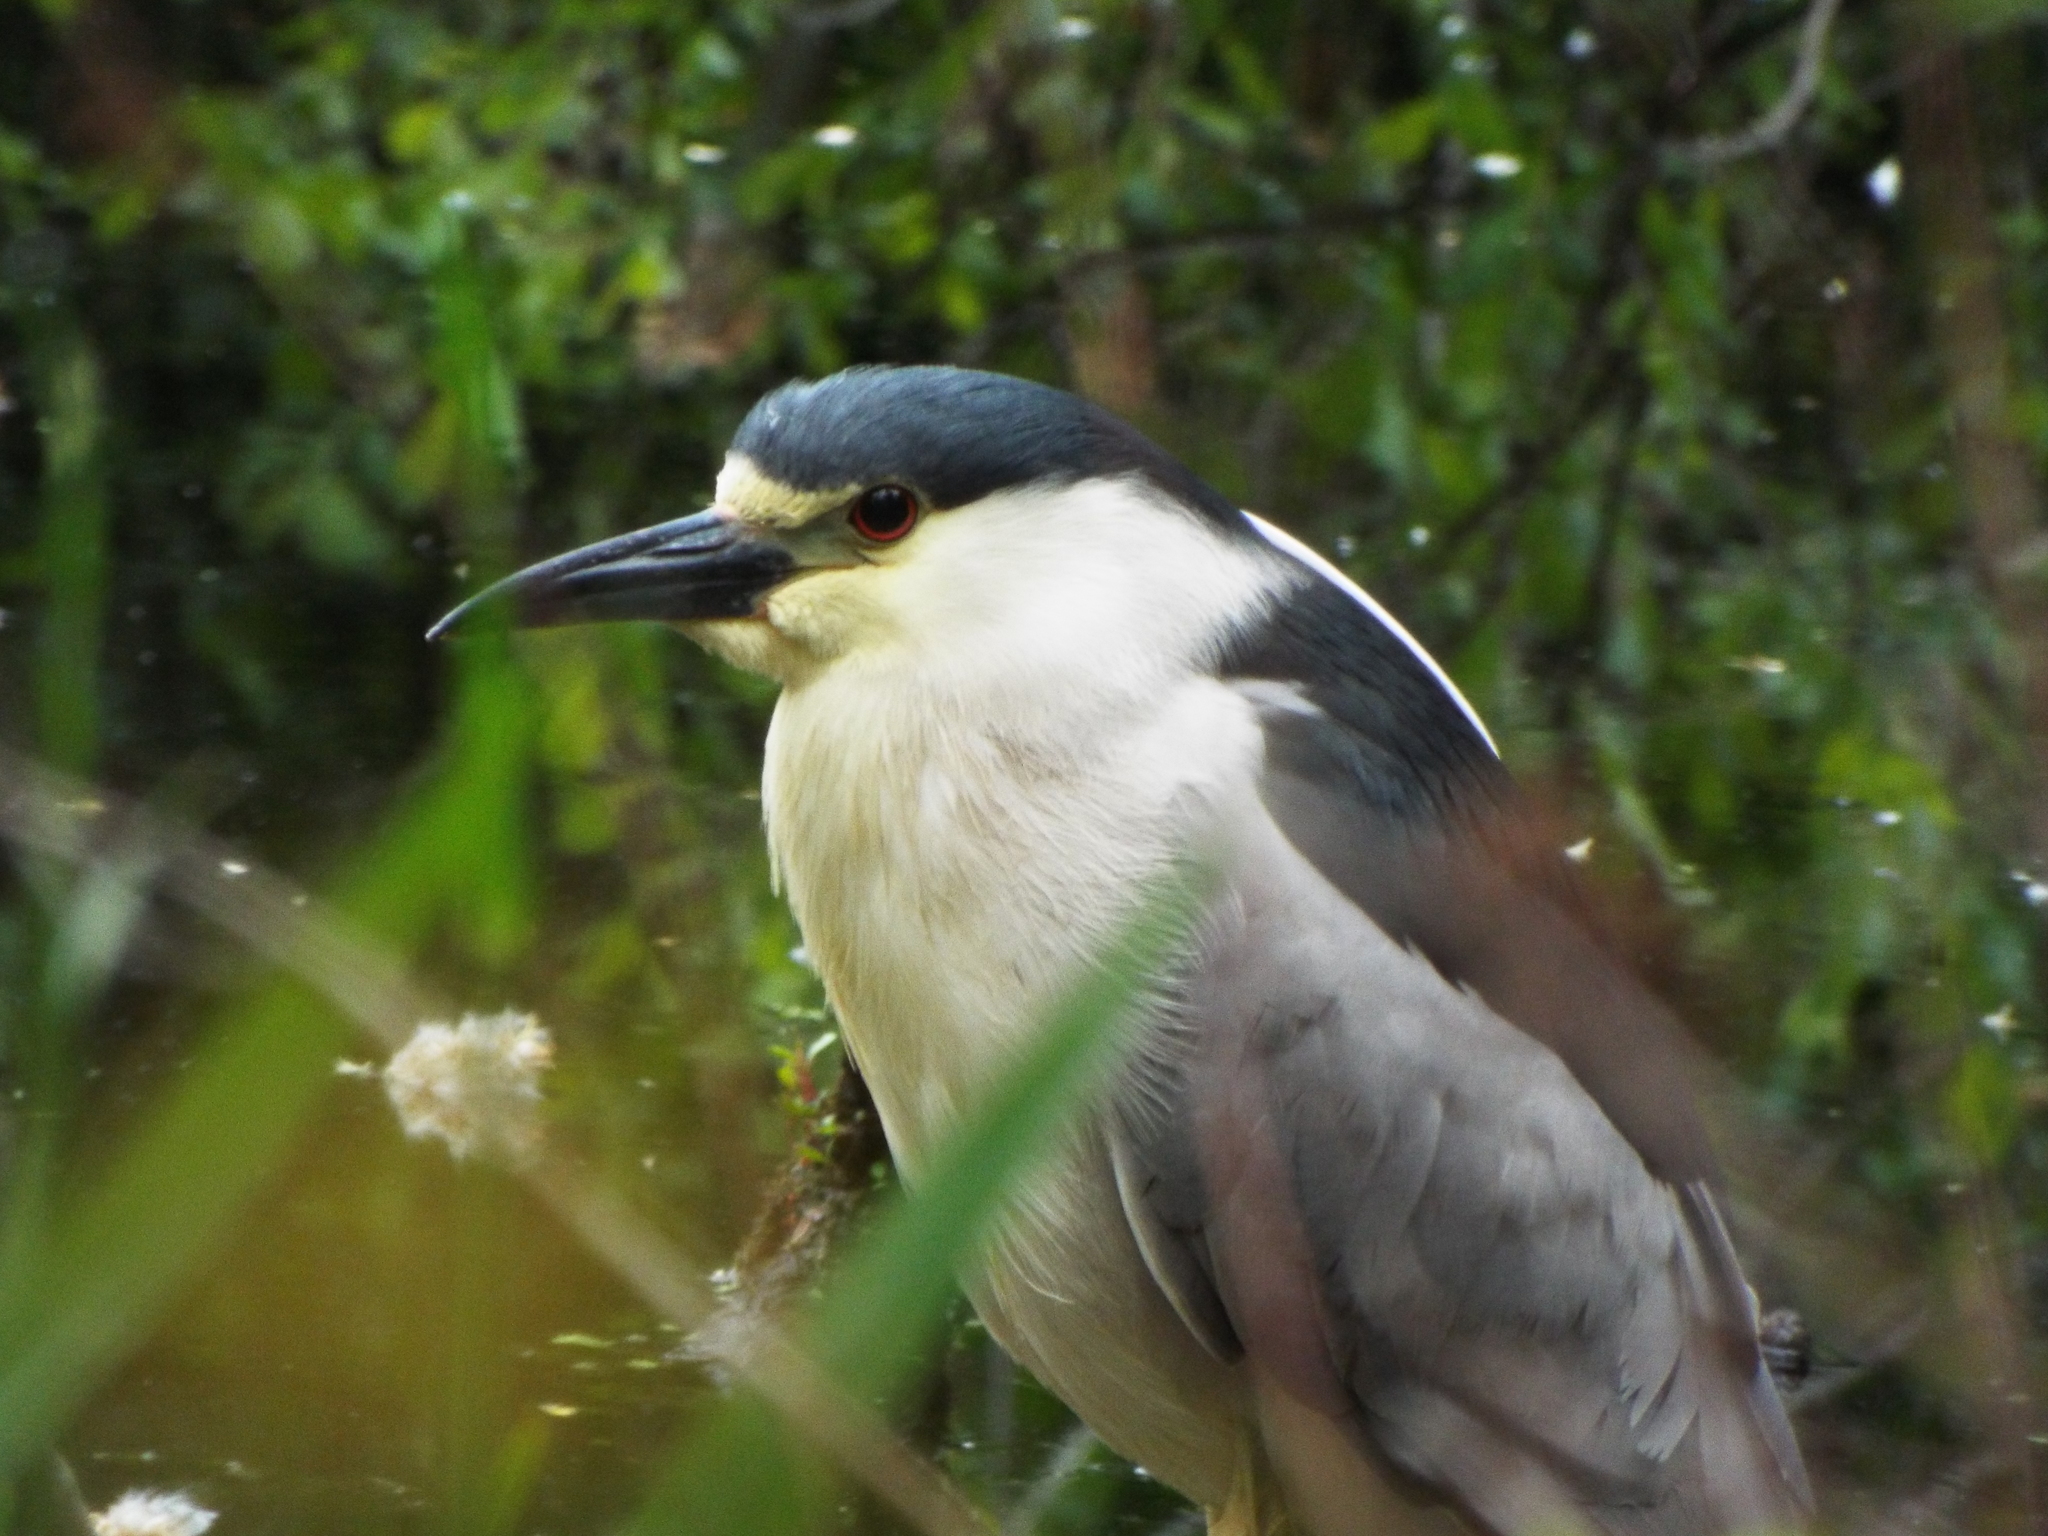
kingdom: Animalia
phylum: Chordata
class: Aves
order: Pelecaniformes
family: Ardeidae
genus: Nycticorax
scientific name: Nycticorax nycticorax
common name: Black-crowned night heron
